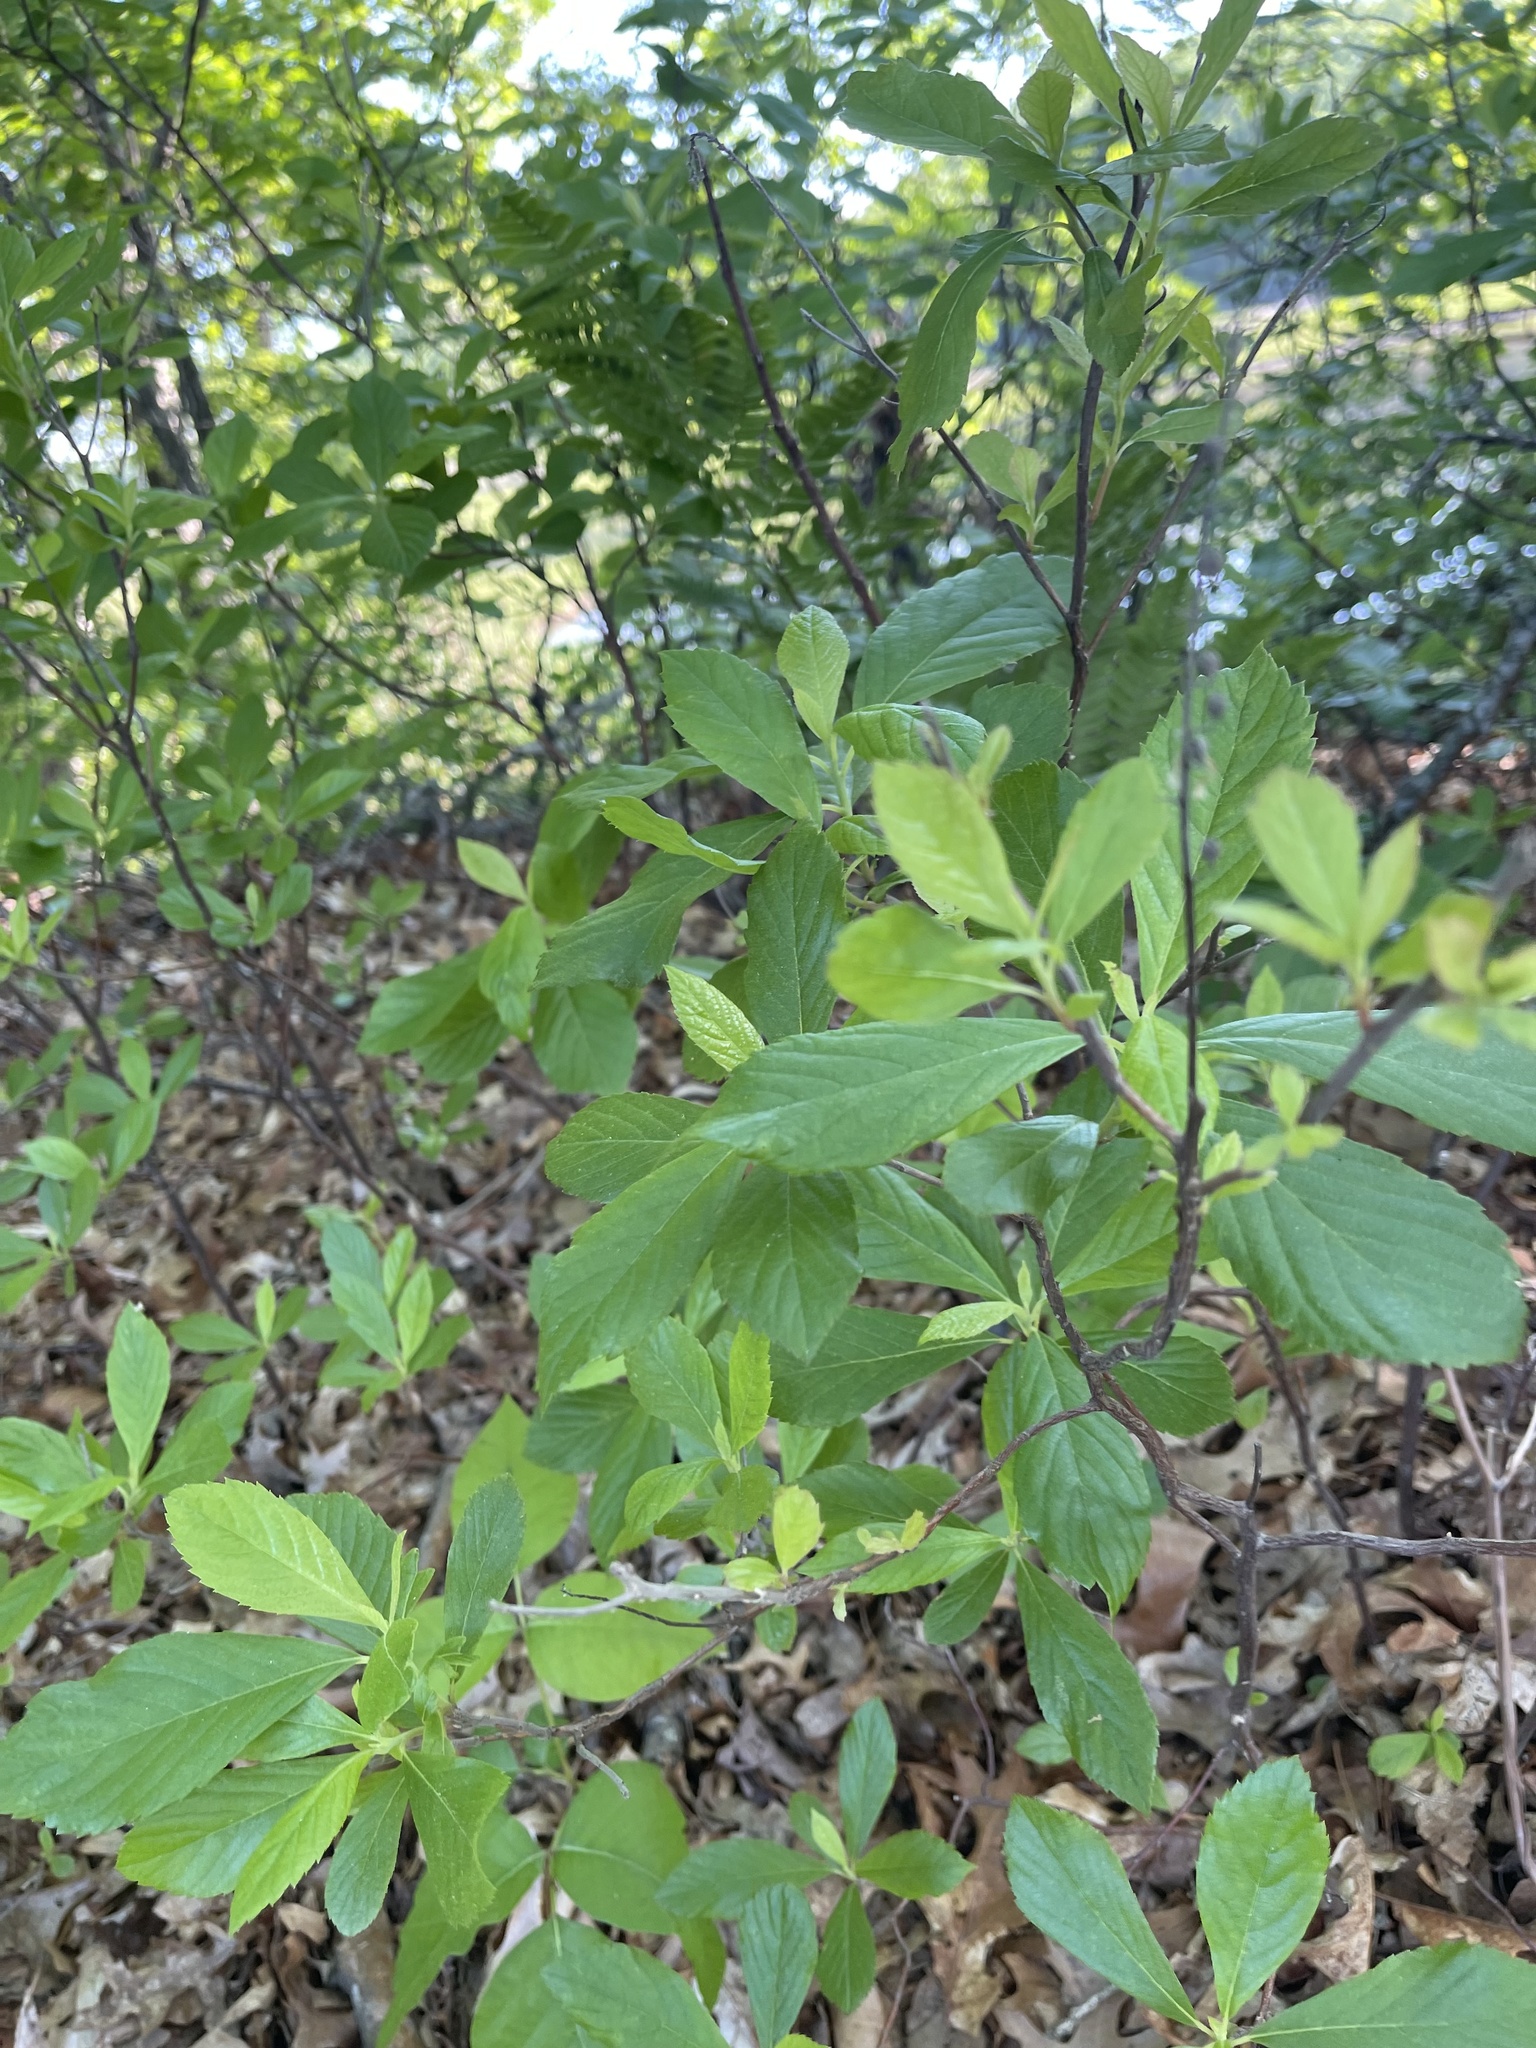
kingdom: Plantae
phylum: Tracheophyta
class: Magnoliopsida
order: Ericales
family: Clethraceae
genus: Clethra
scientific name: Clethra alnifolia
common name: Sweet pepperbush
